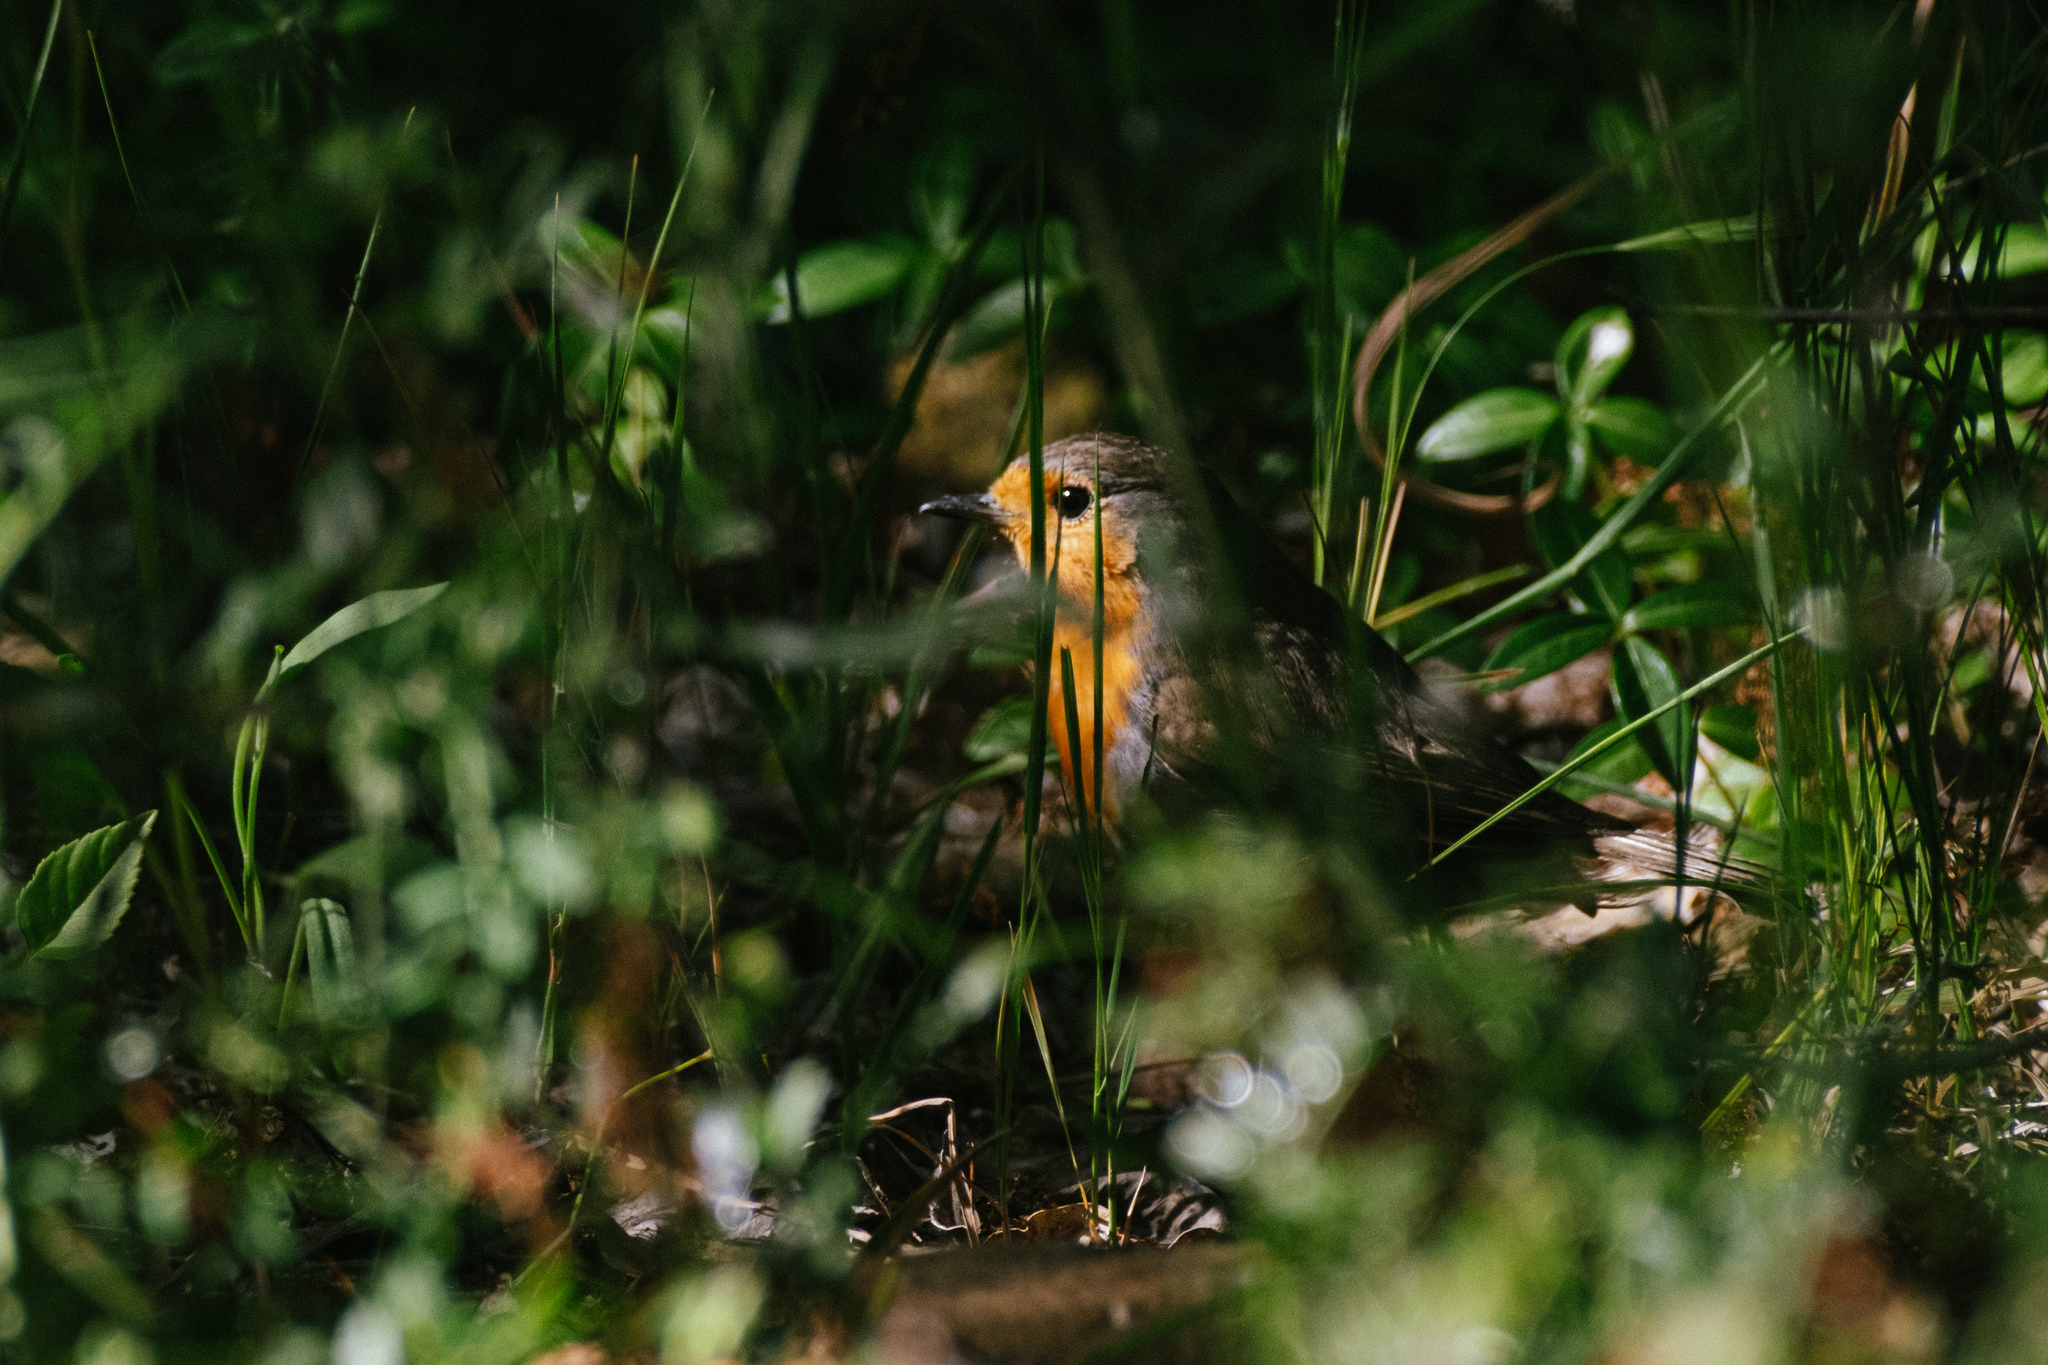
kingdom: Animalia
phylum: Chordata
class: Aves
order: Passeriformes
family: Muscicapidae
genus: Erithacus
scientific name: Erithacus rubecula
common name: European robin
